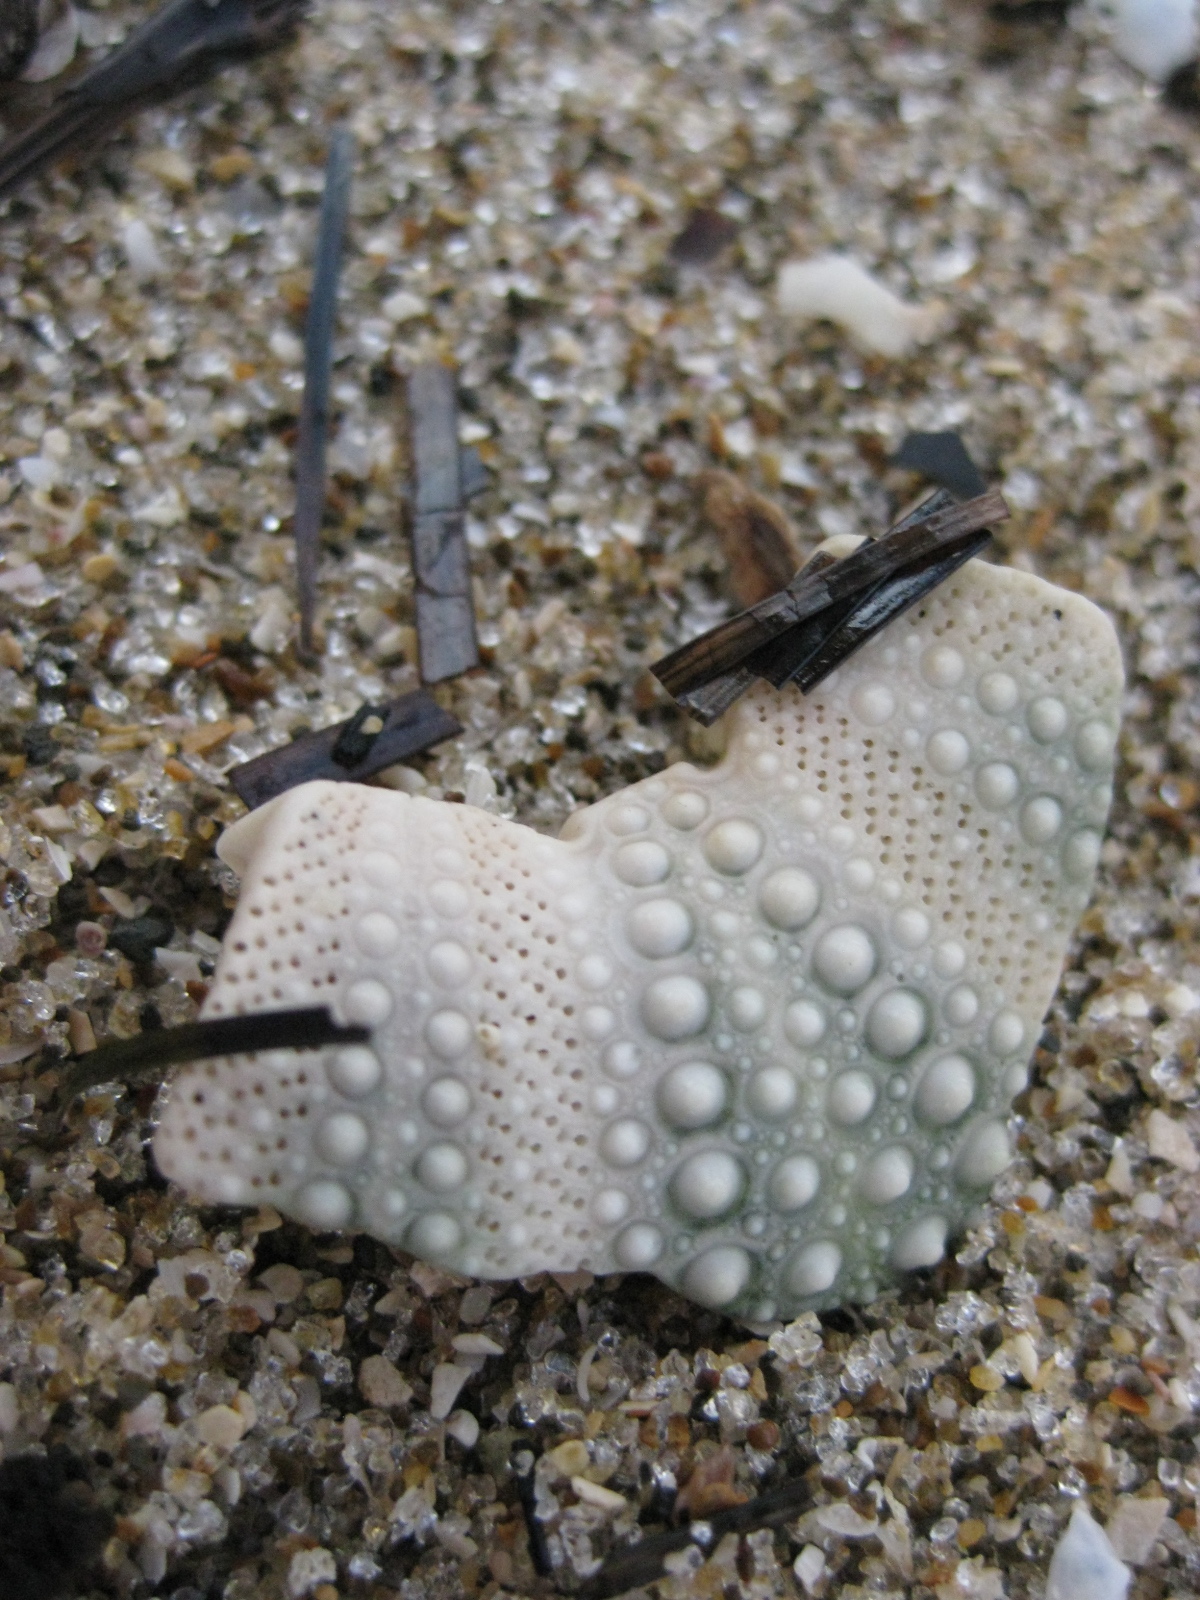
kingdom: Animalia
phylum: Echinodermata
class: Echinoidea
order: Camarodonta
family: Echinometridae
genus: Evechinus
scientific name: Evechinus chloroticus
